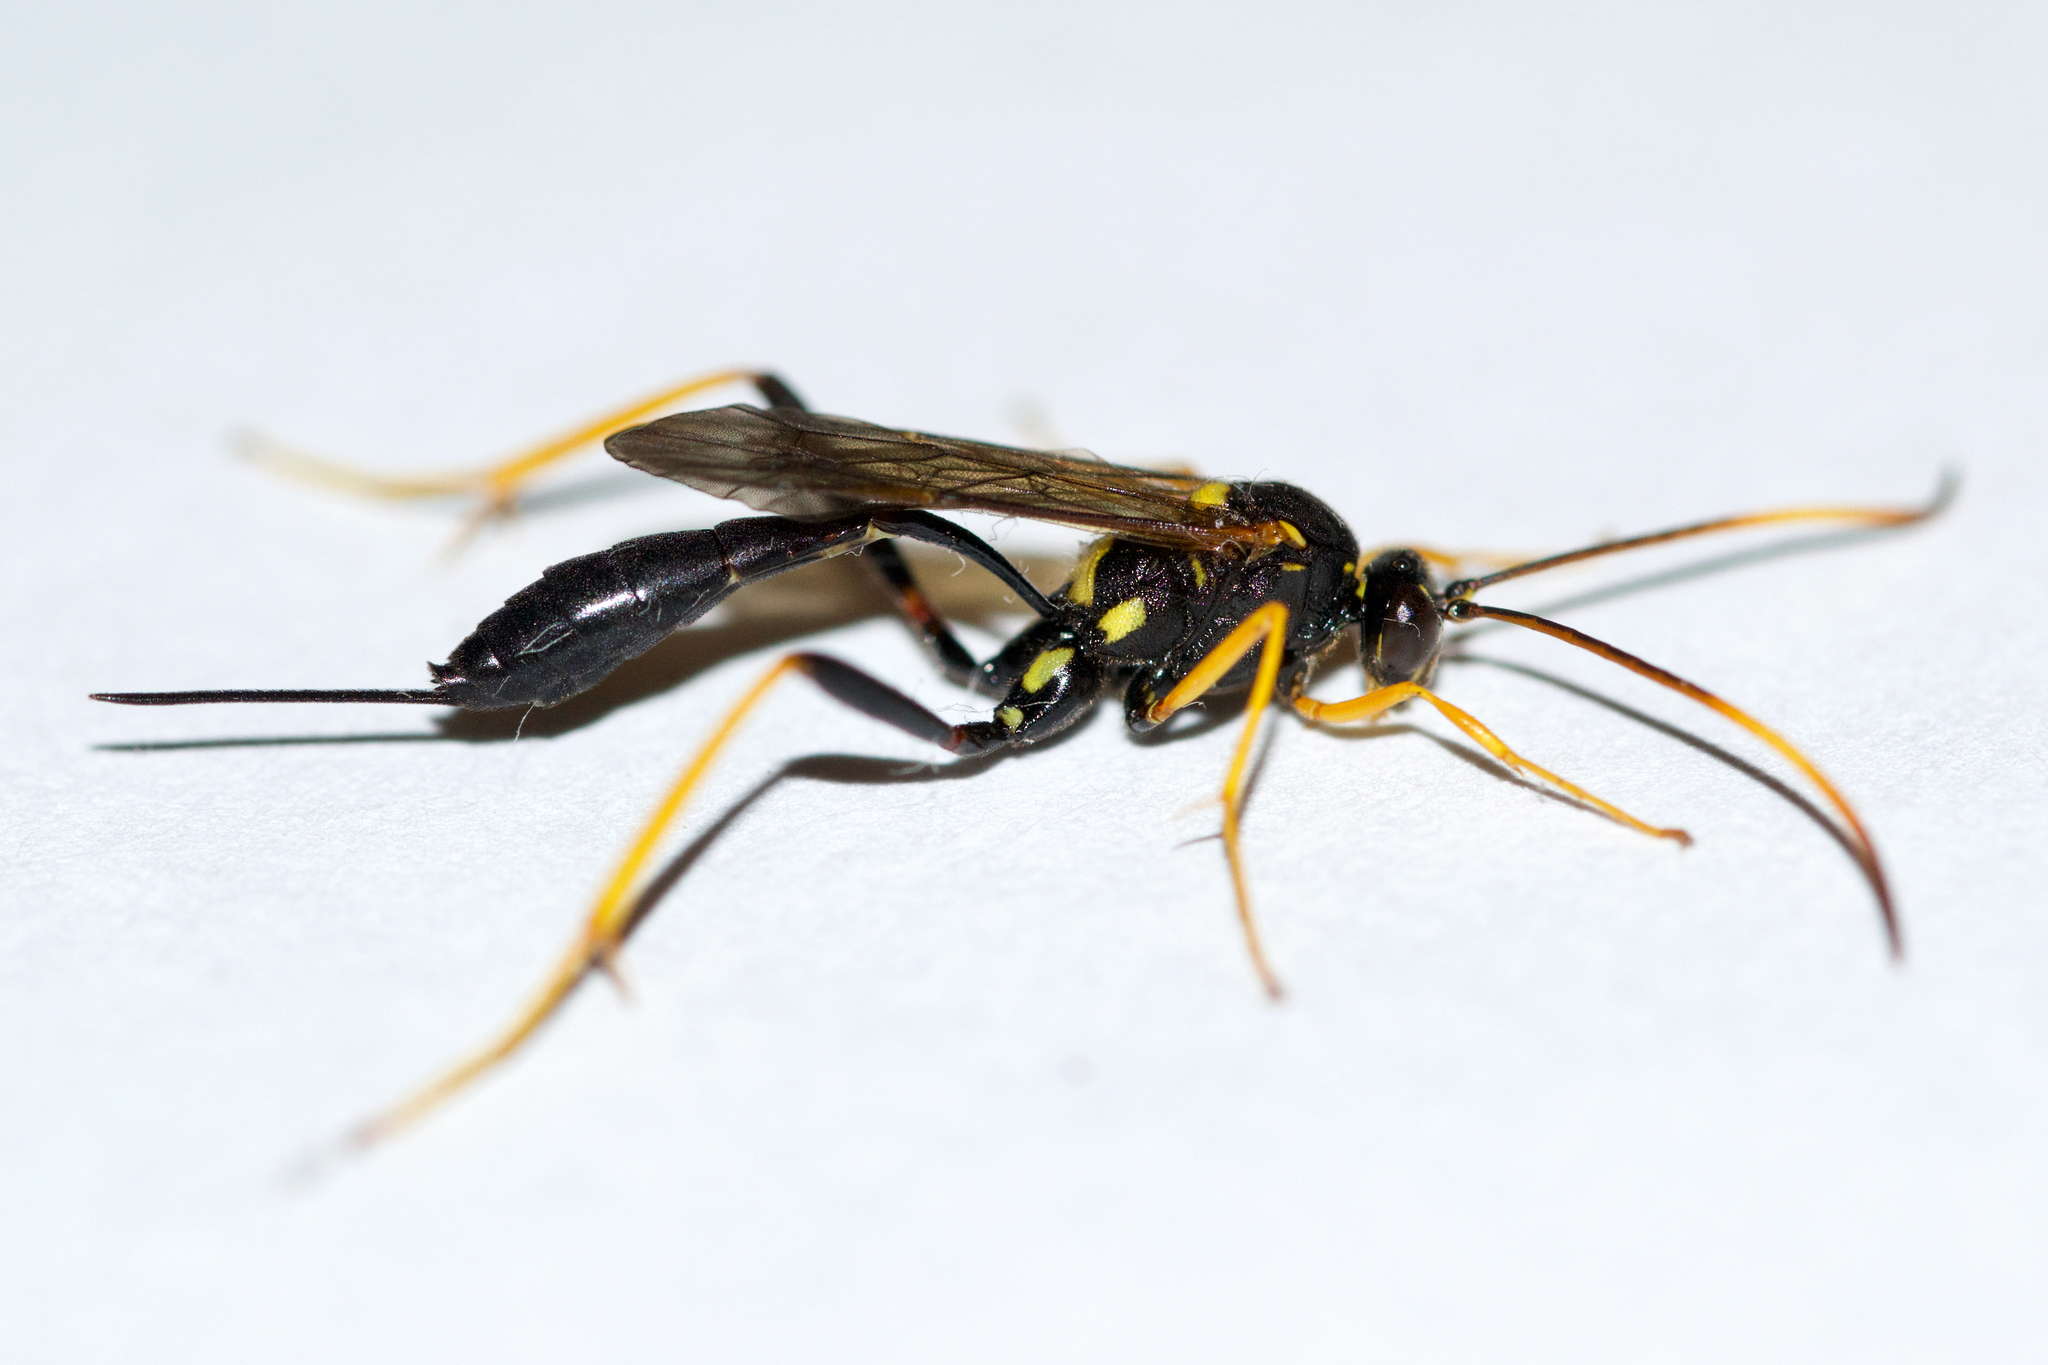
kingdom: Animalia
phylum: Arthropoda
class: Insecta
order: Hymenoptera
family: Ichneumonidae
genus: Acroricnus
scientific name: Acroricnus stylator
